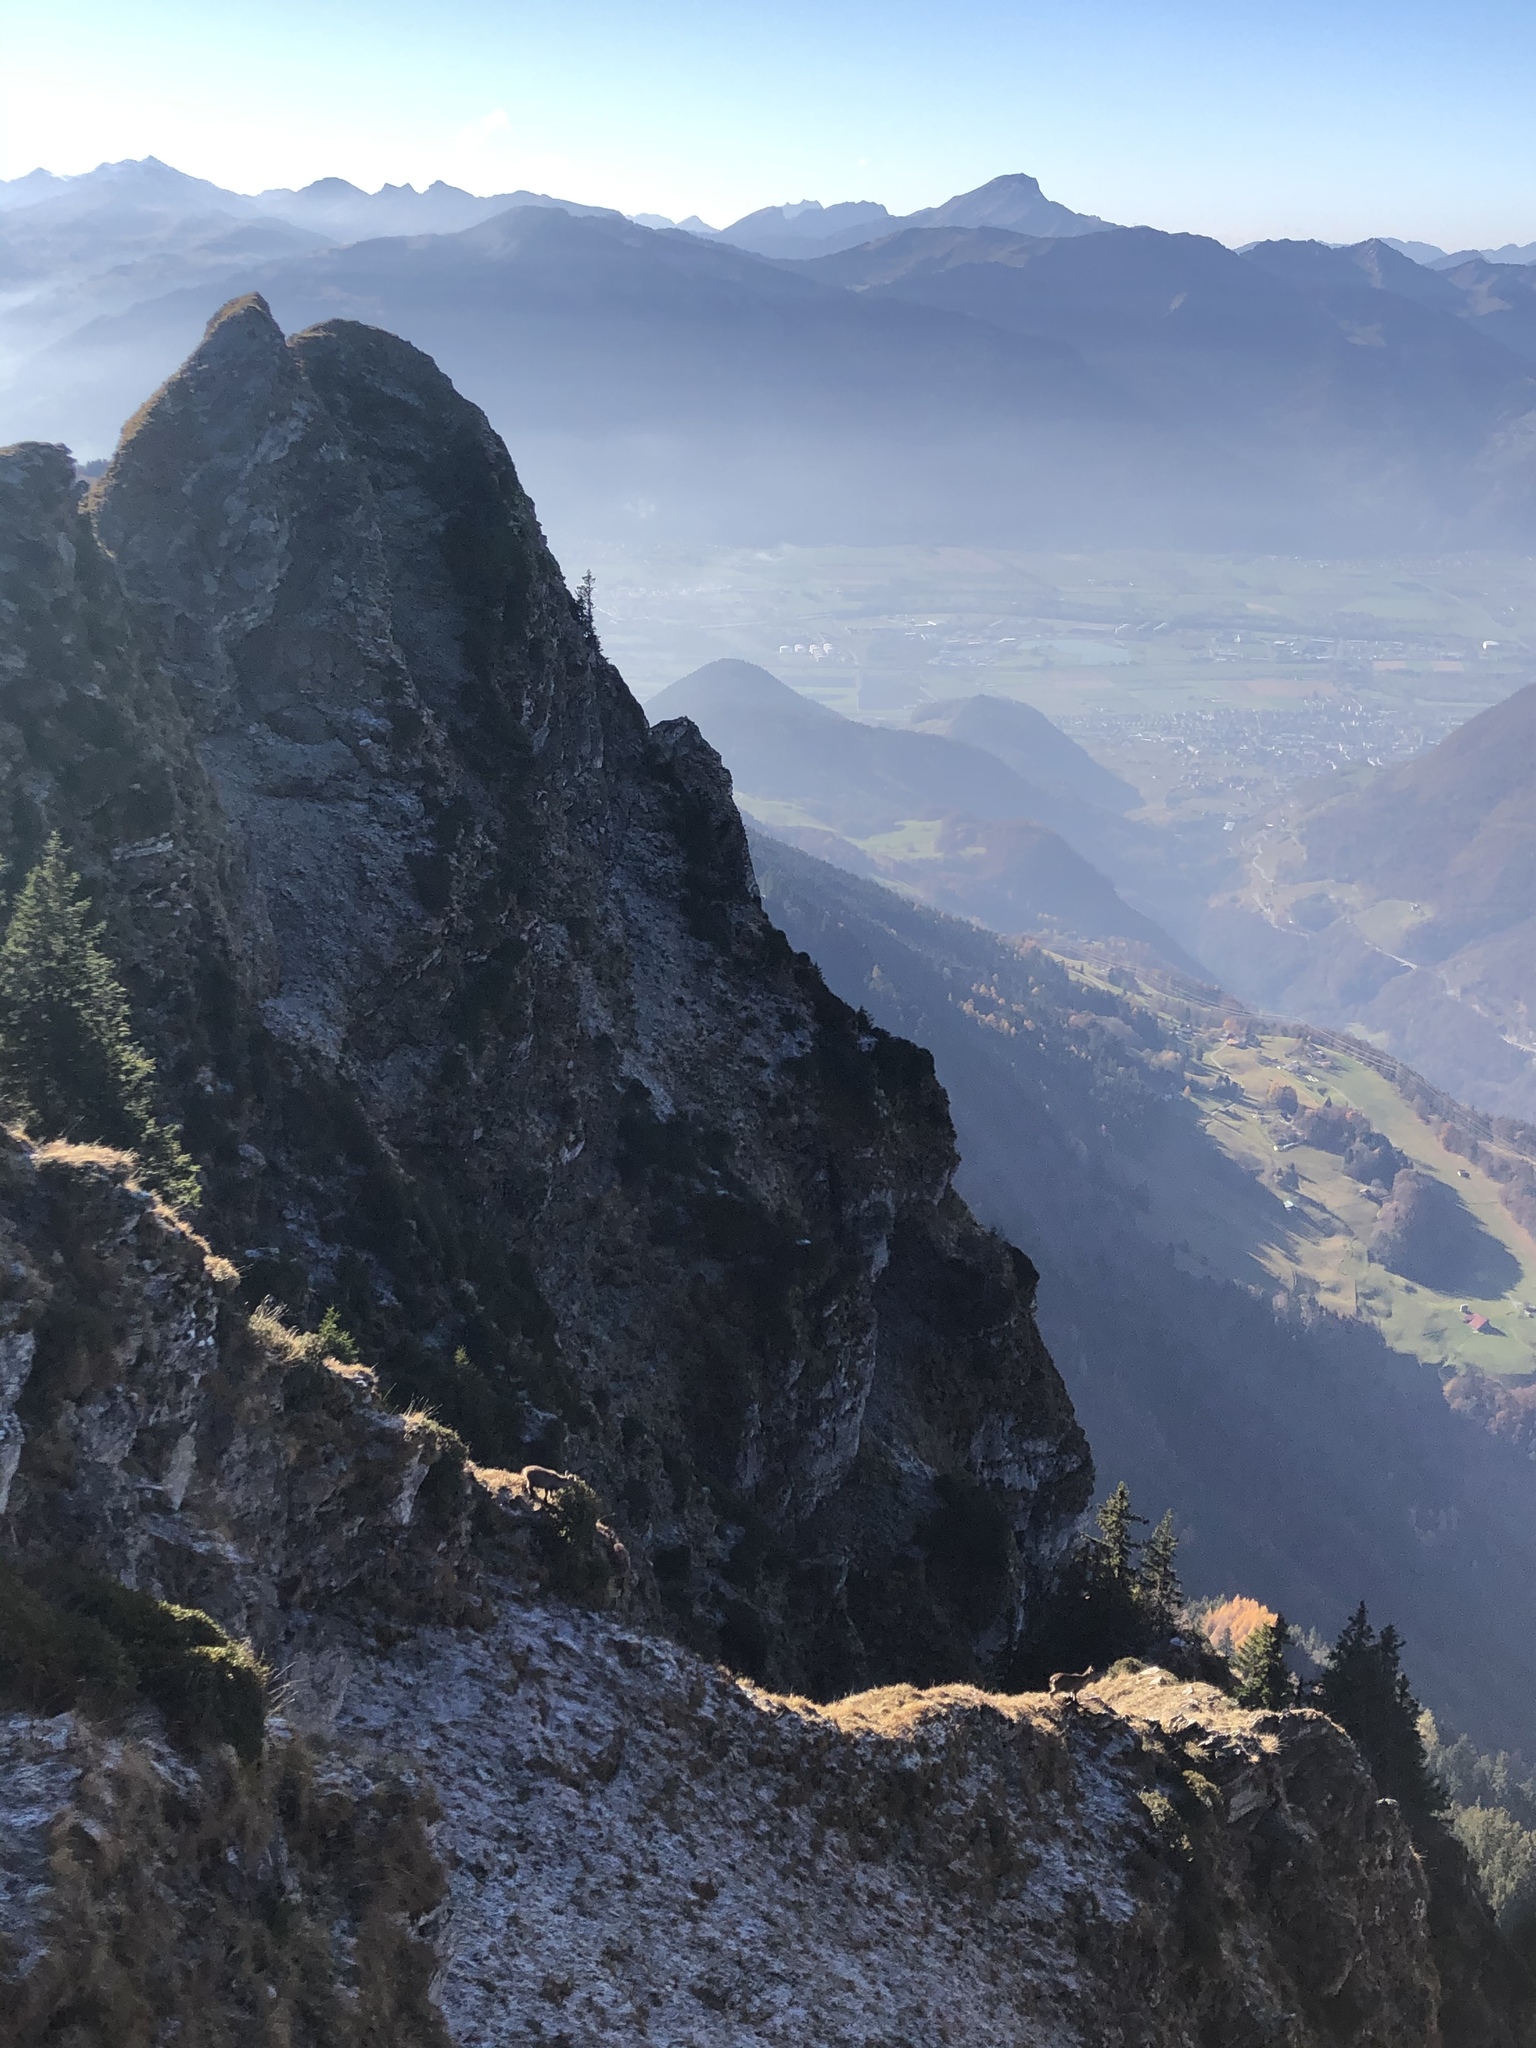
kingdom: Animalia
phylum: Chordata
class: Mammalia
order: Artiodactyla
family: Bovidae
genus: Capra
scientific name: Capra ibex
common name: Alpine ibex
